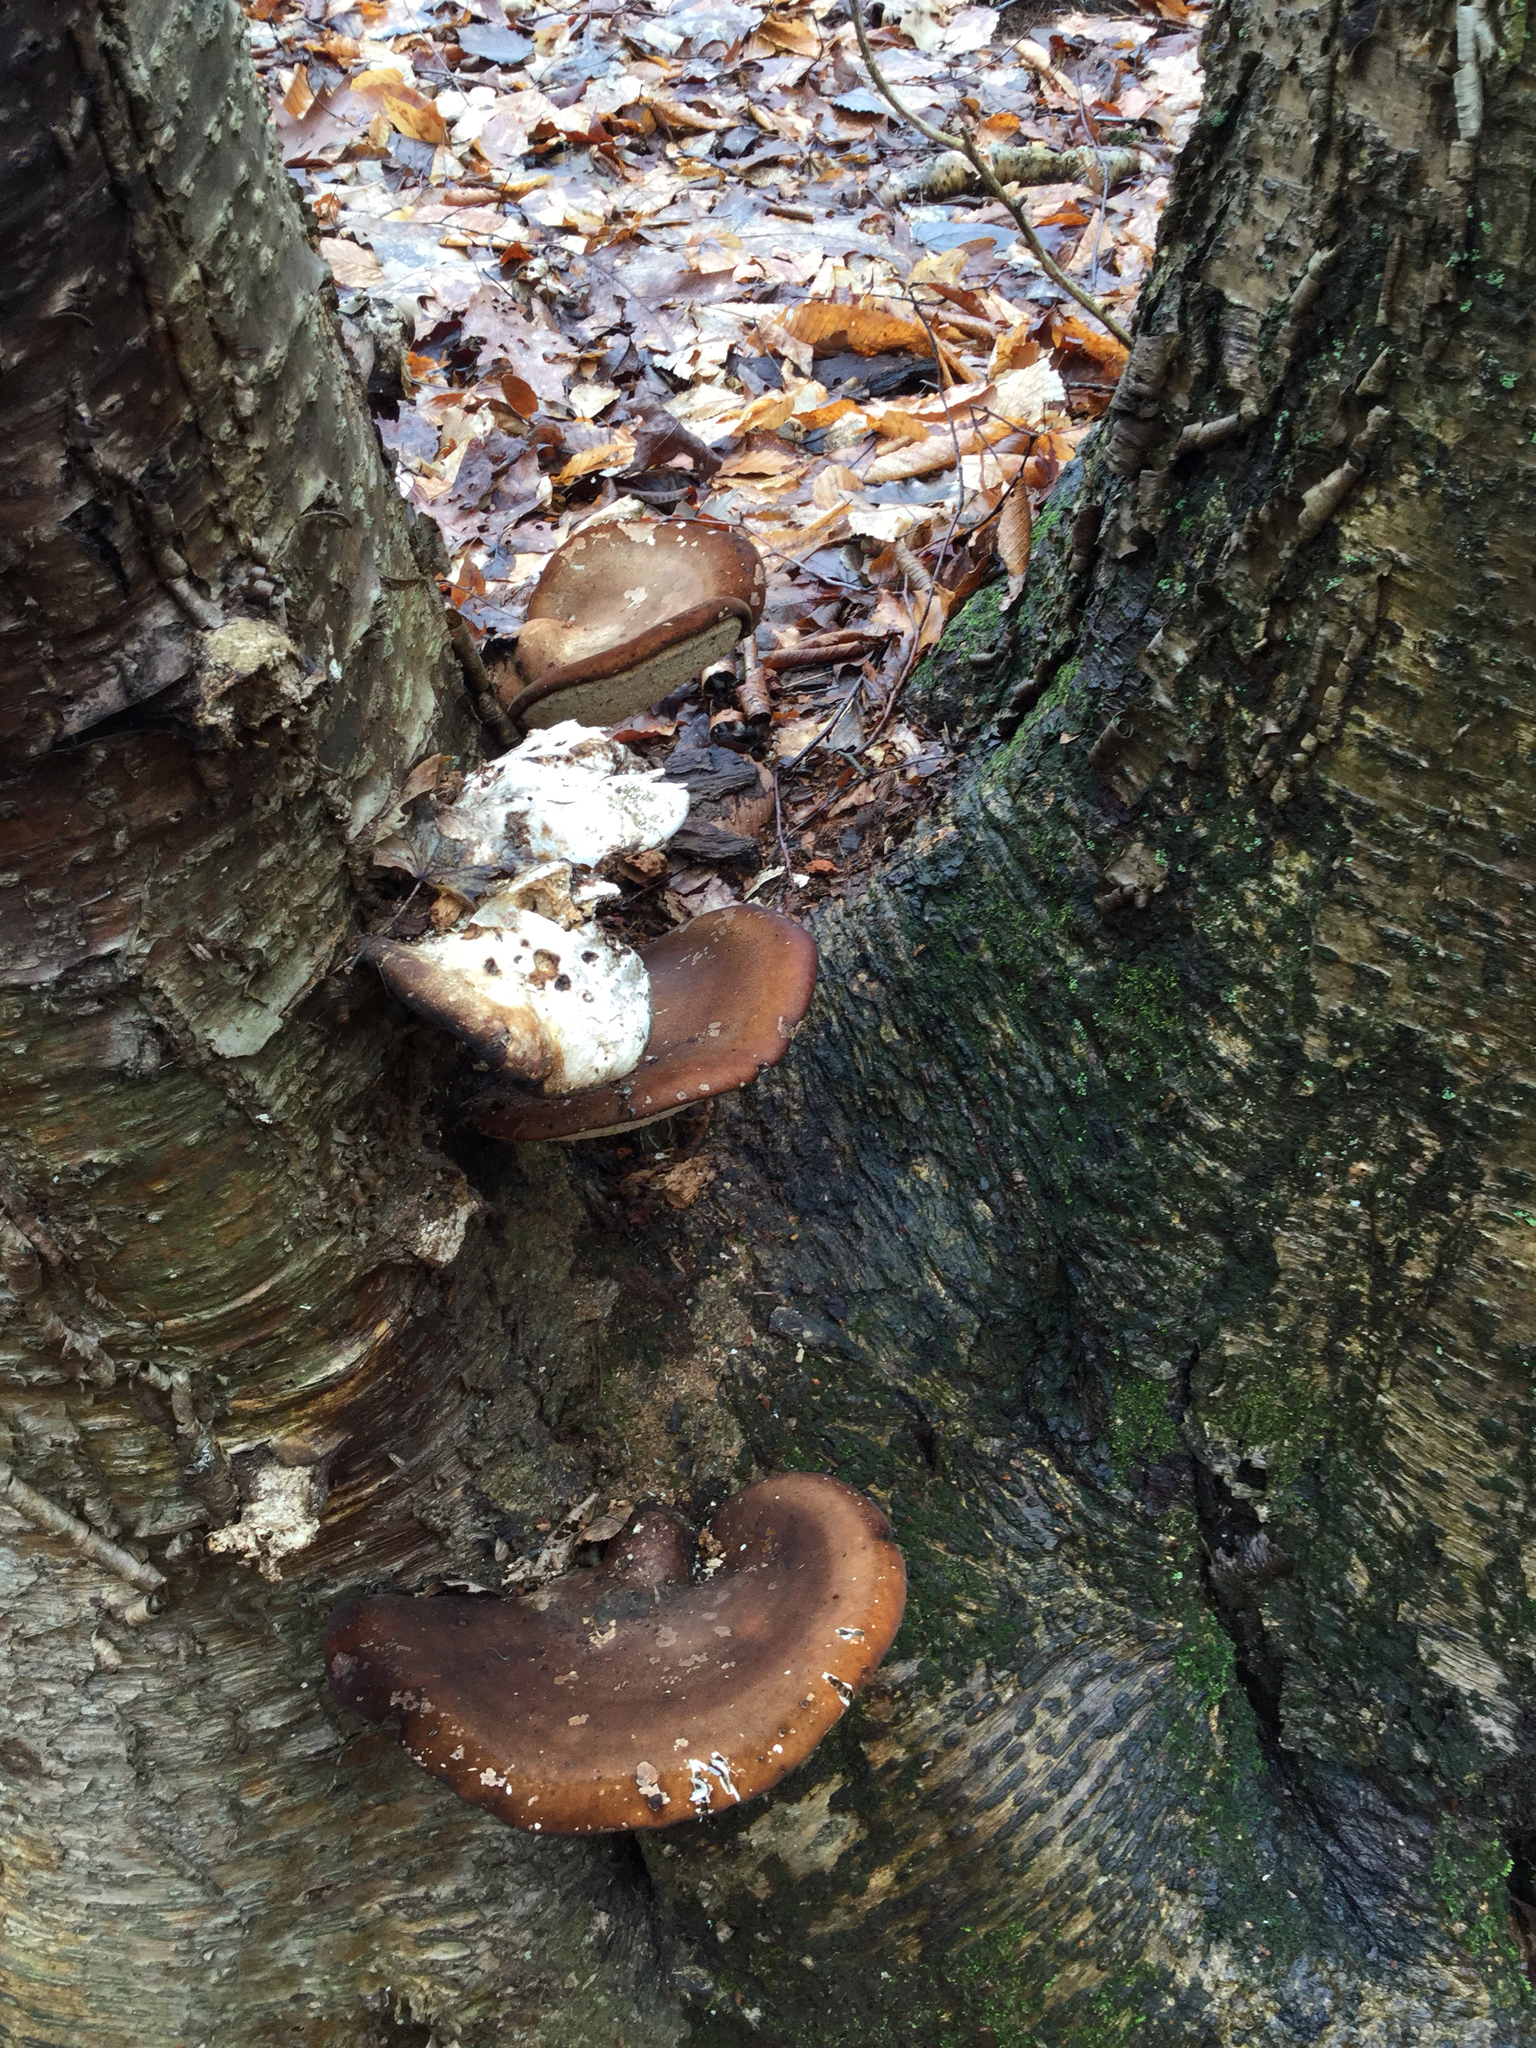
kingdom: Fungi
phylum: Basidiomycota
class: Agaricomycetes
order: Polyporales
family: Fomitopsidaceae
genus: Fomitopsis
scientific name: Fomitopsis betulina
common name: Birch polypore
